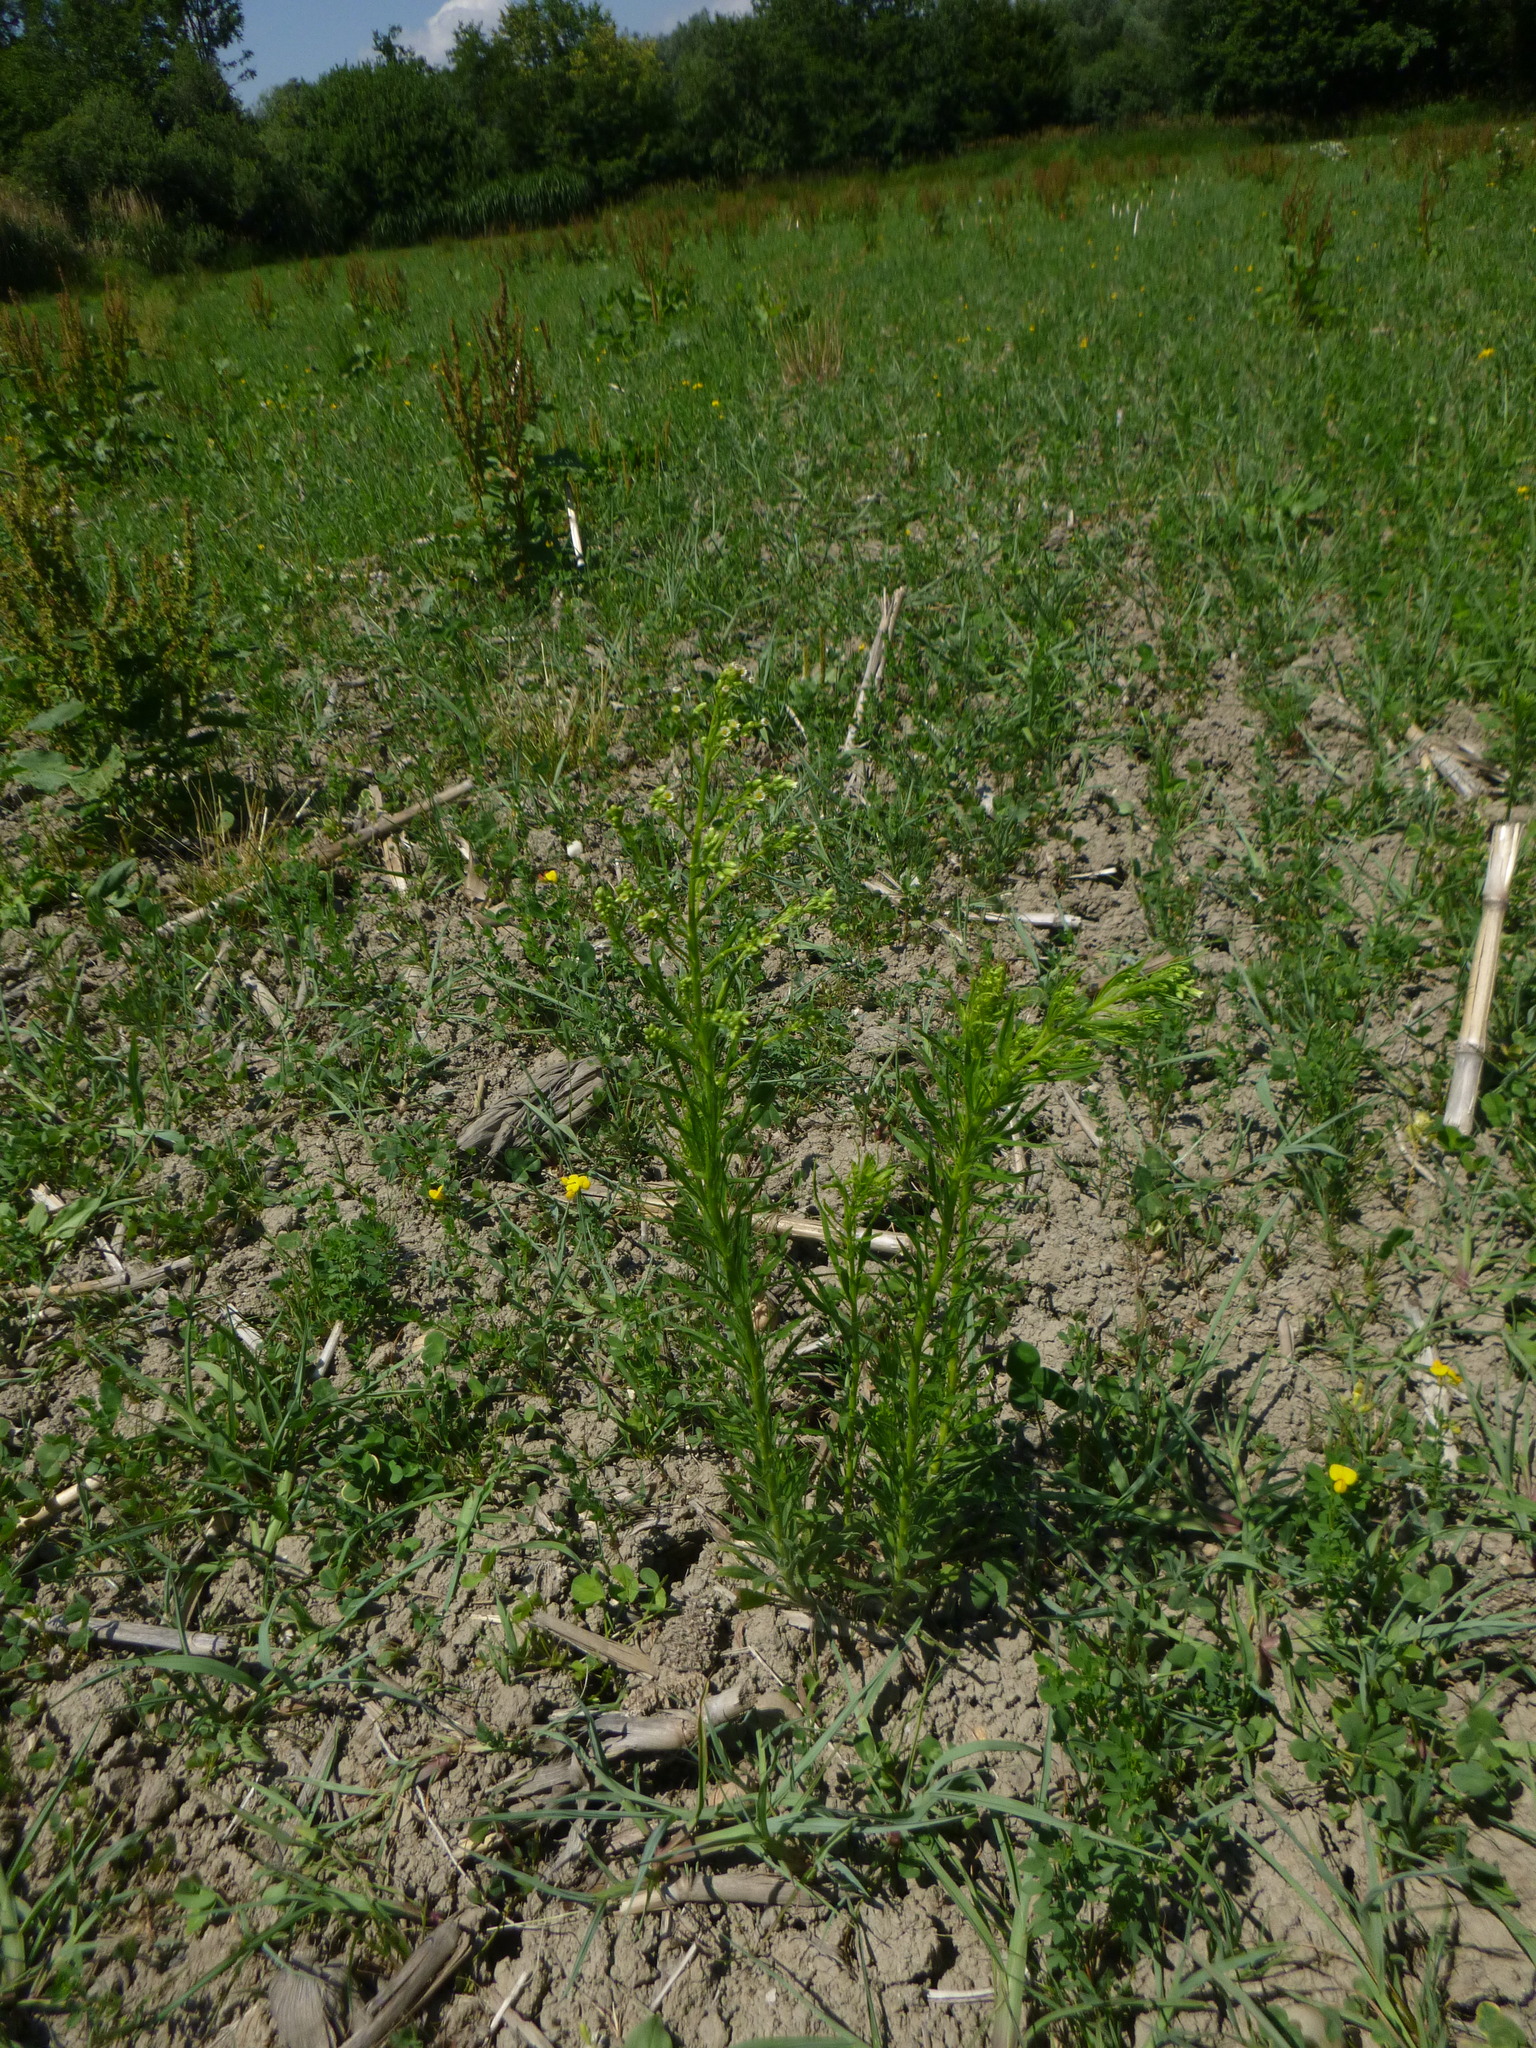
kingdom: Plantae
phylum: Tracheophyta
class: Magnoliopsida
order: Asterales
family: Asteraceae
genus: Erigeron
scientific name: Erigeron canadensis
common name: Canadian fleabane
